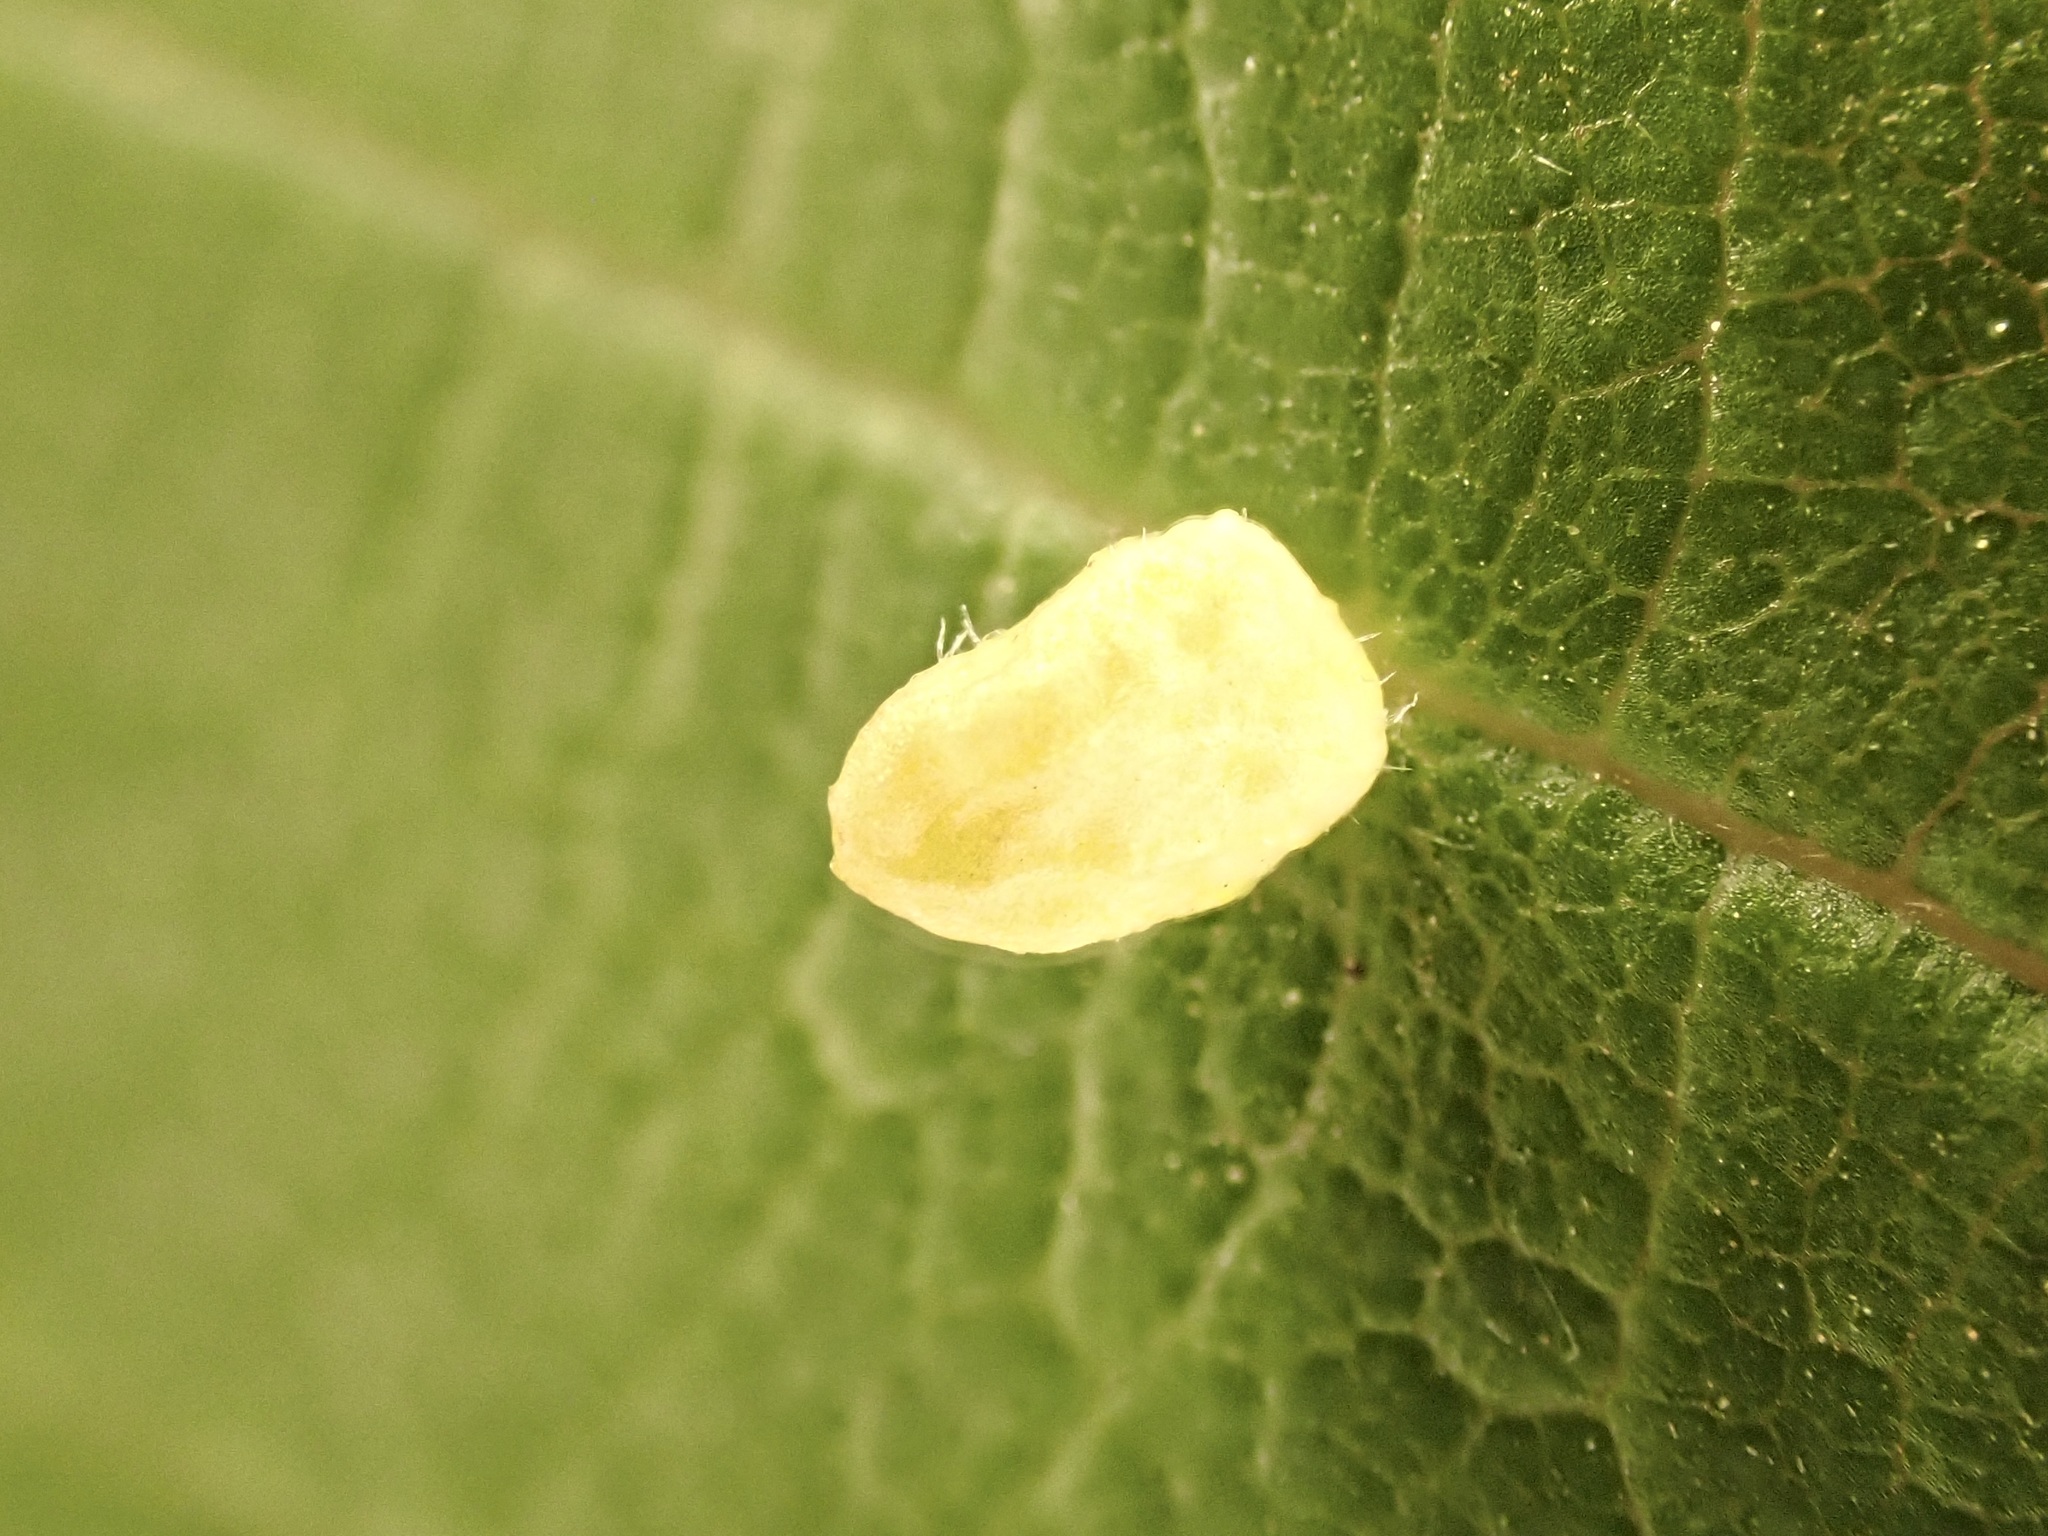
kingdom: Animalia
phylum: Arthropoda
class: Arachnida
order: Trombidiformes
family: Eriophyidae
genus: Aceria
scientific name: Aceria brevipunctata
